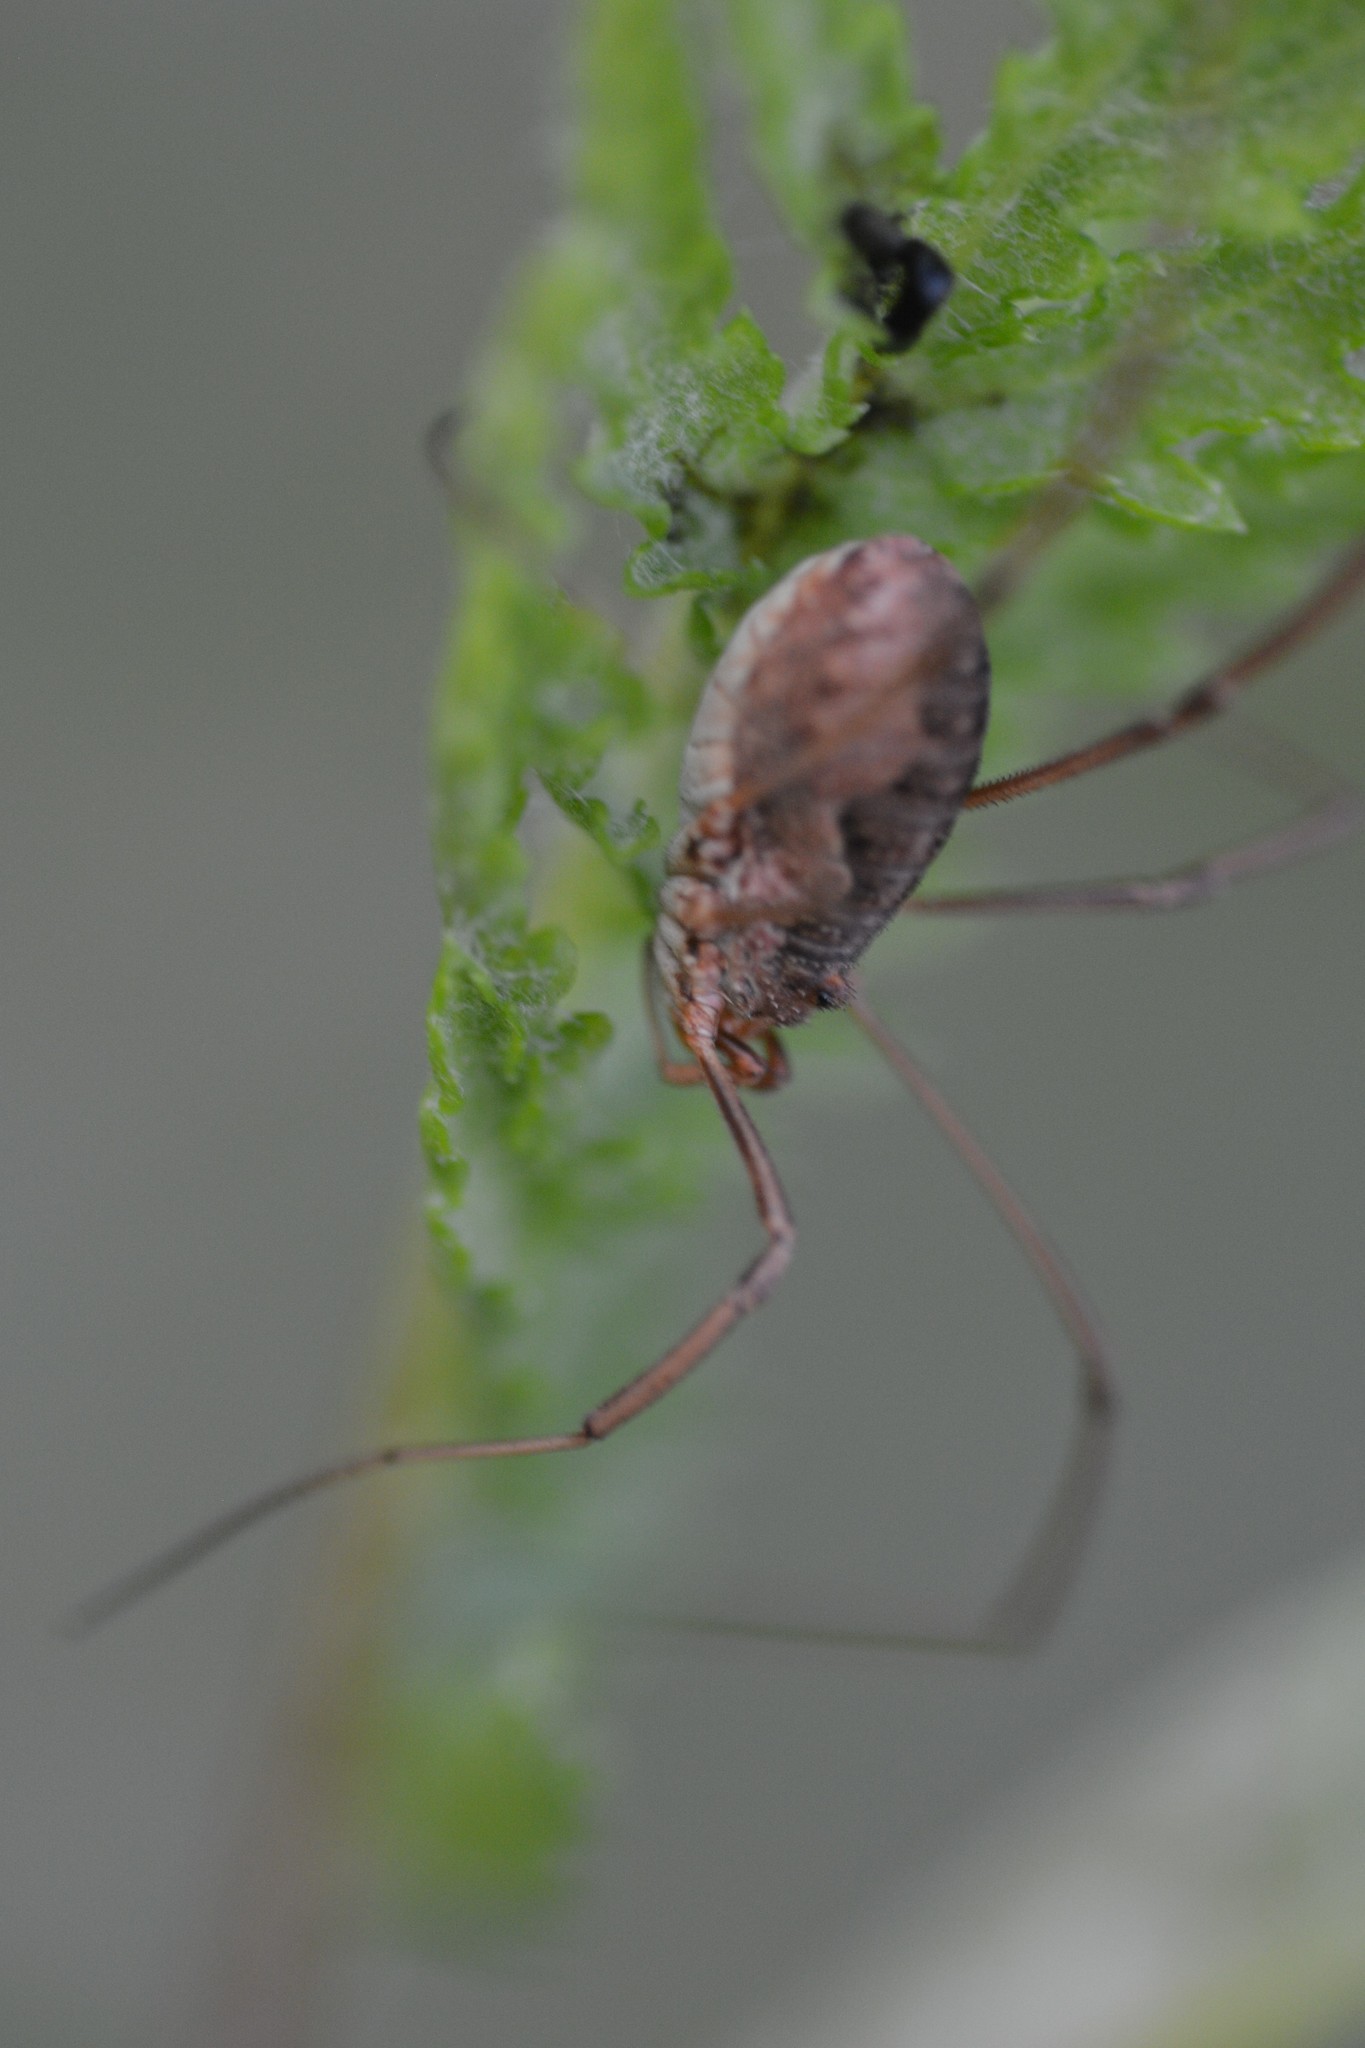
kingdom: Animalia
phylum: Arthropoda
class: Arachnida
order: Opiliones
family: Phalangiidae
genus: Phalangium
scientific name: Phalangium opilio
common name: Daddy longleg
